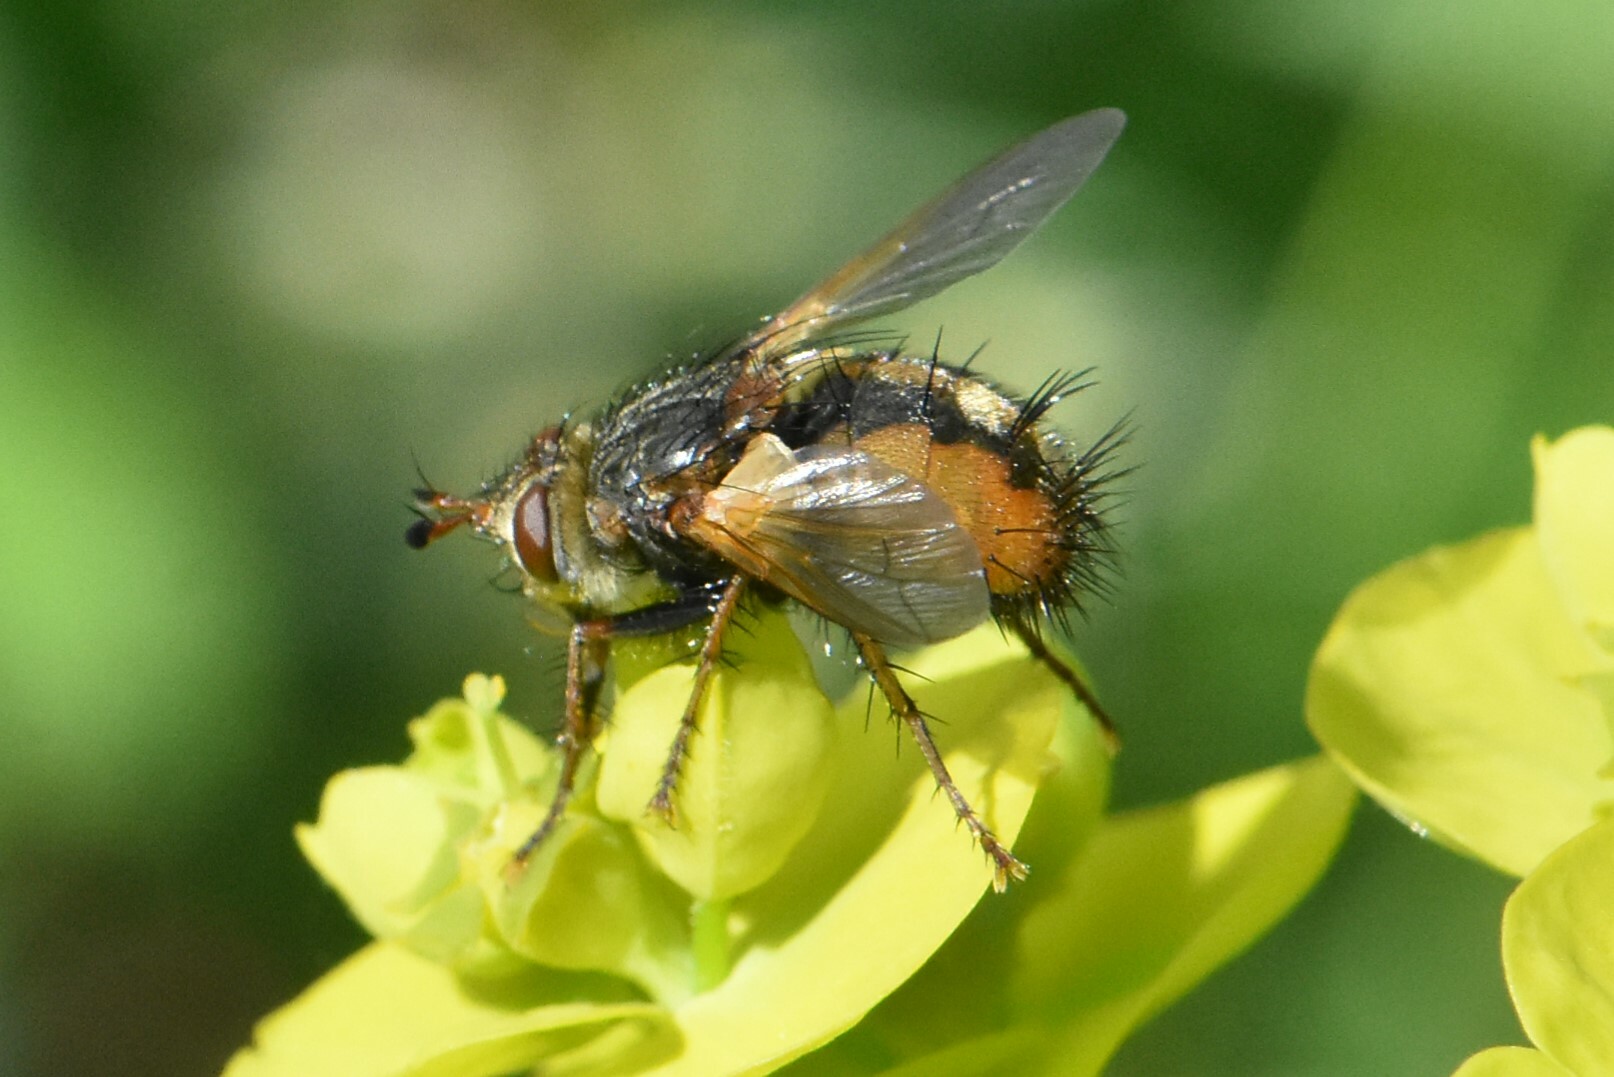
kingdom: Animalia
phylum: Arthropoda
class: Insecta
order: Diptera
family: Tachinidae
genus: Tachina
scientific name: Tachina fera
